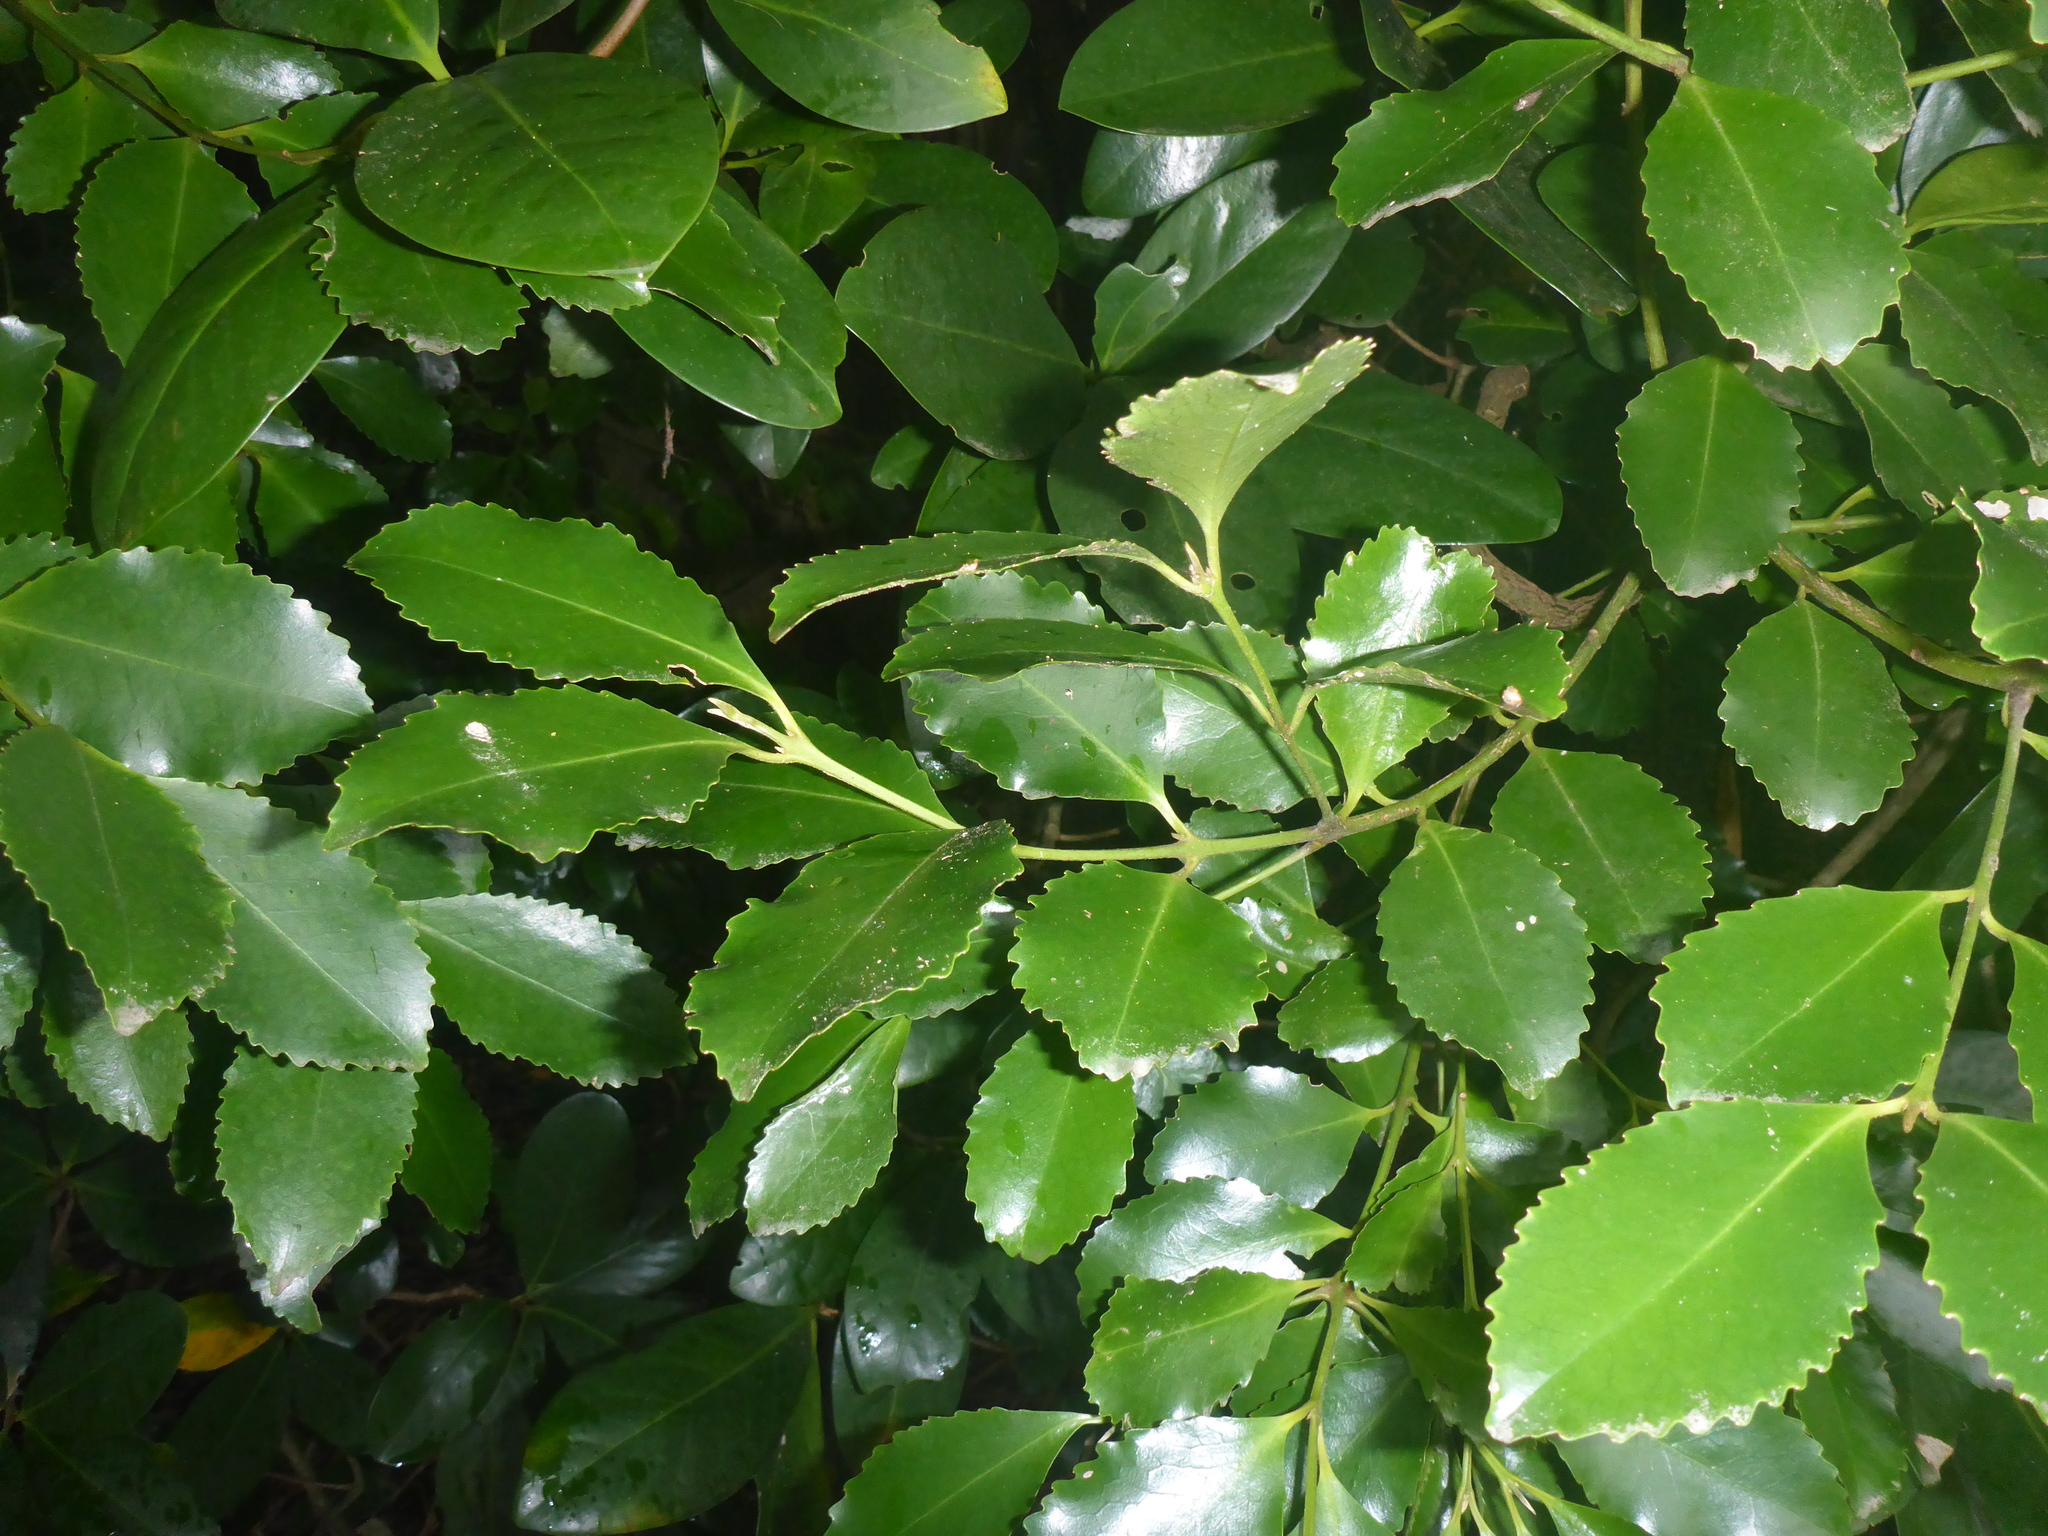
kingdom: Plantae
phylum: Tracheophyta
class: Magnoliopsida
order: Laurales
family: Atherospermataceae
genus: Laurelia
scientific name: Laurelia novae-zelandiae
